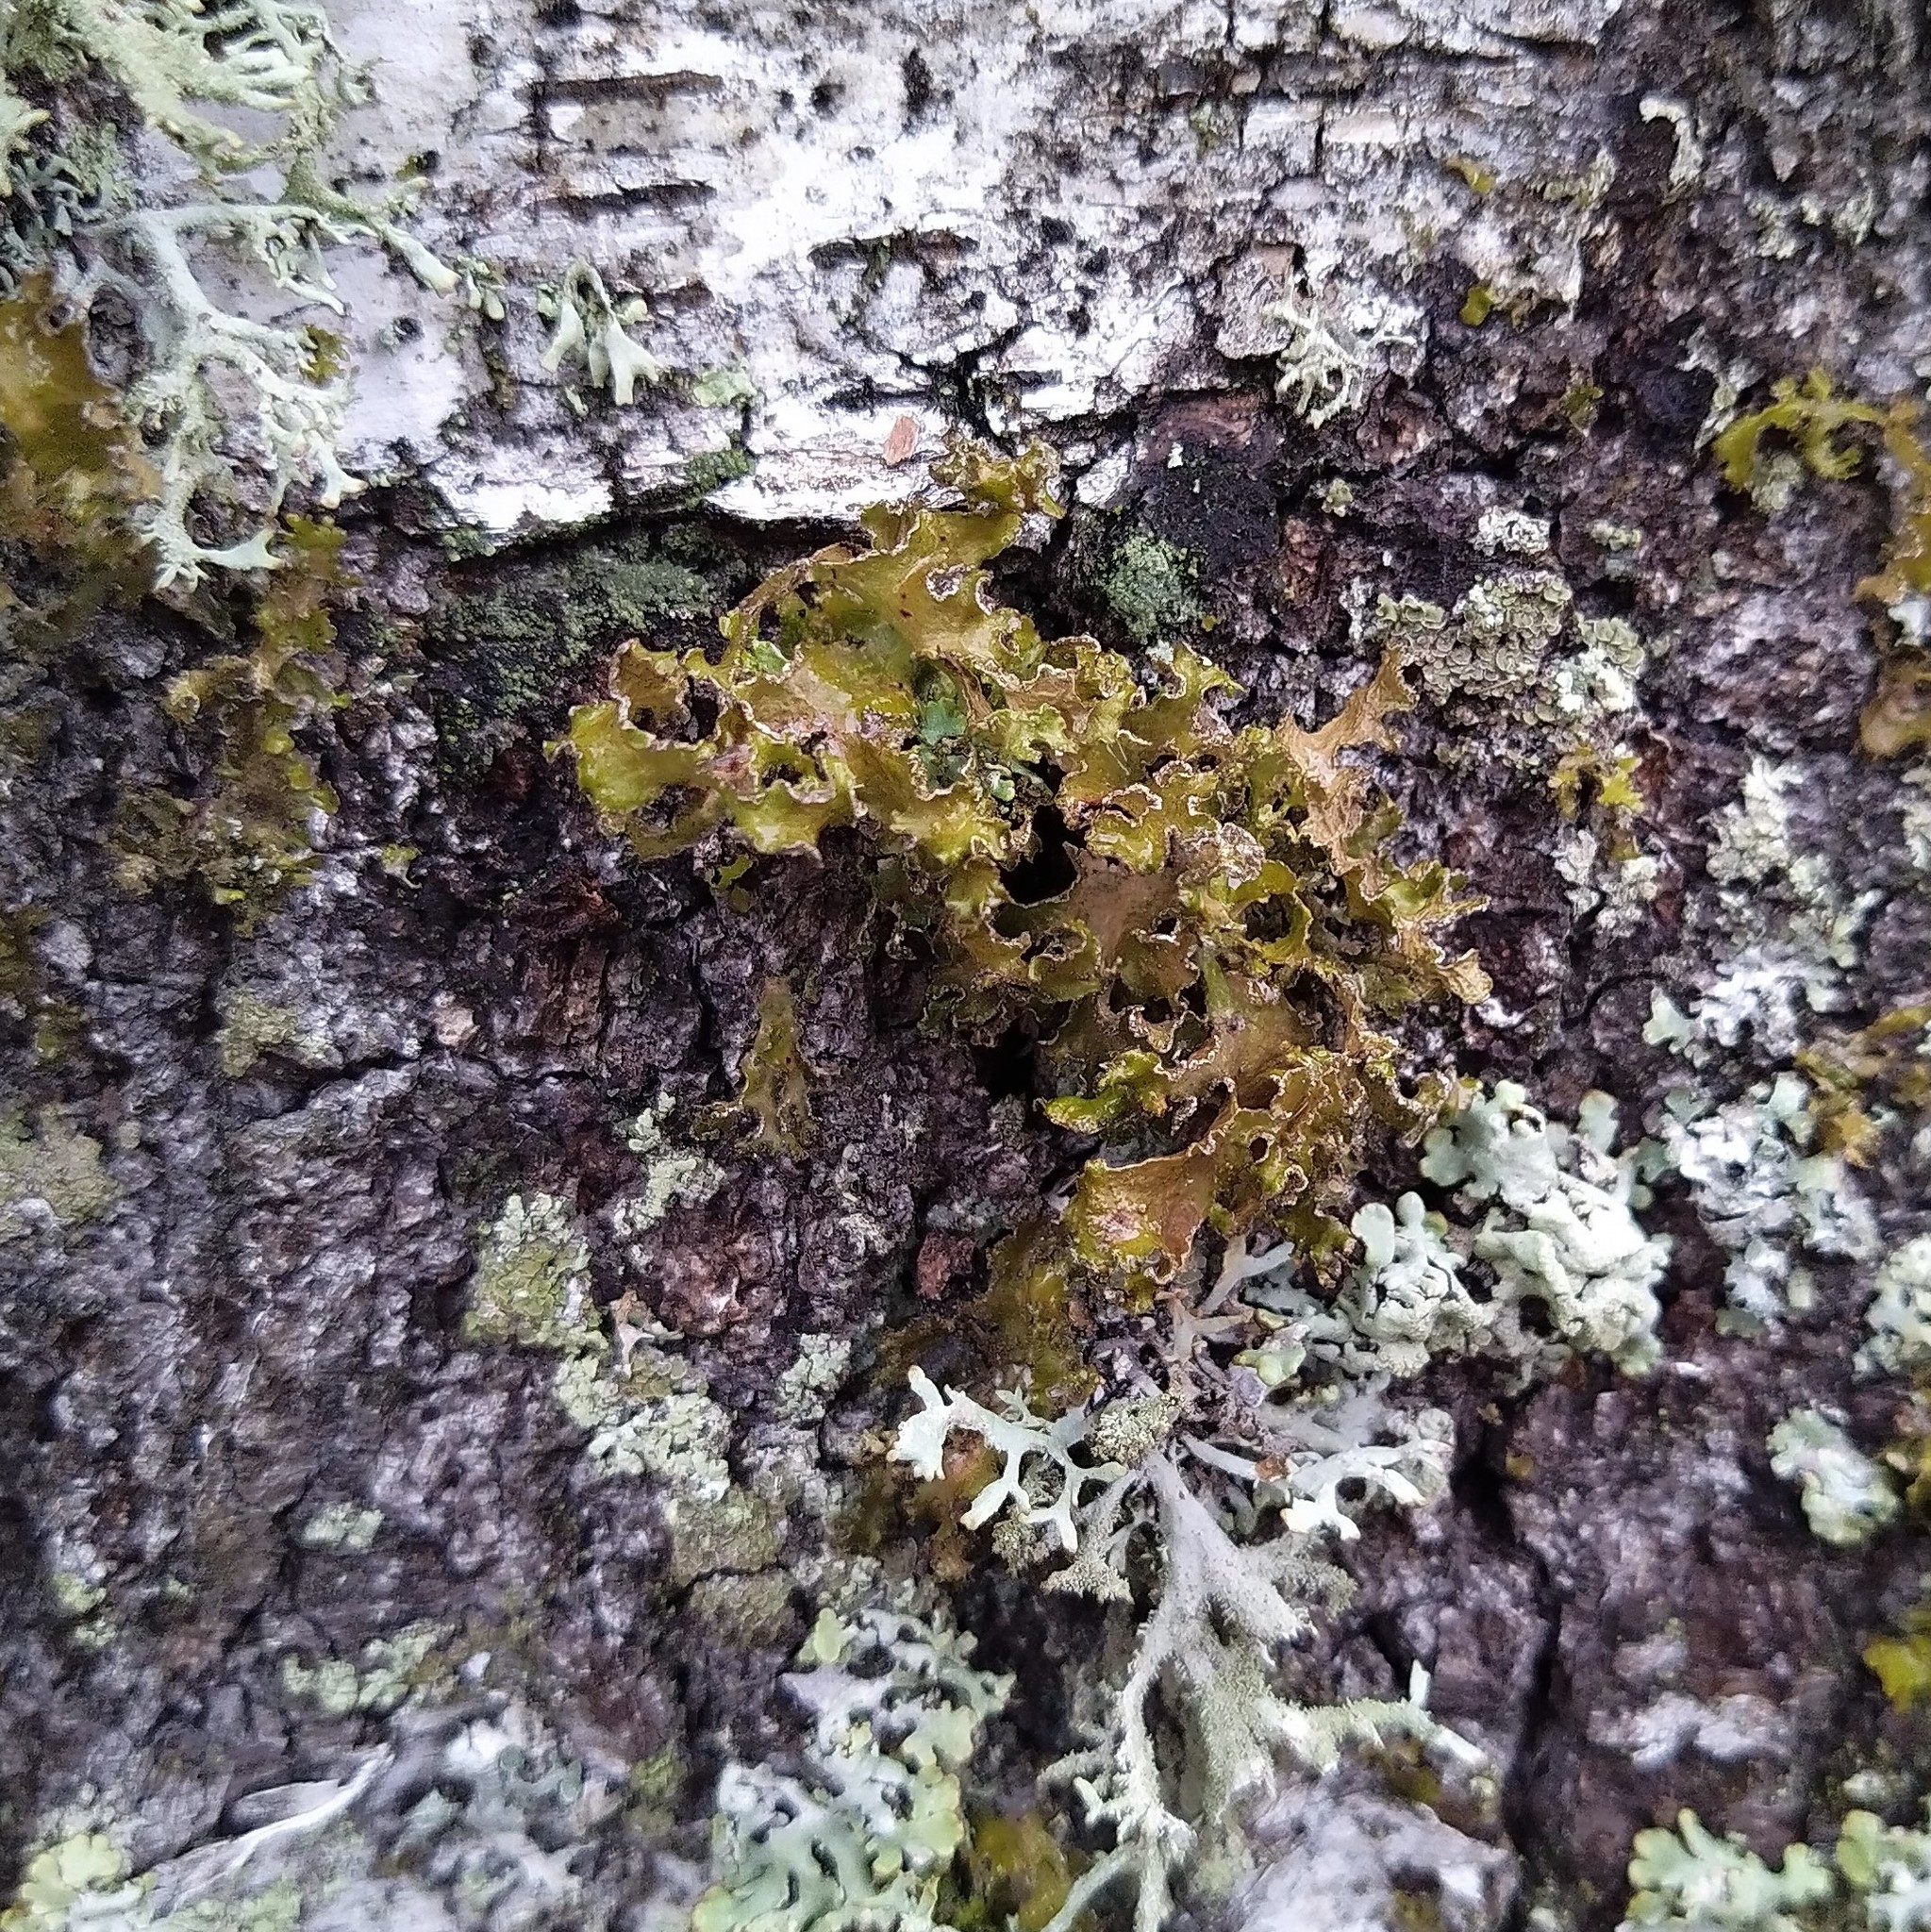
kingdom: Fungi
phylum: Ascomycota
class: Lecanoromycetes
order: Lecanorales
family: Parmeliaceae
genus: Nephromopsis
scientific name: Nephromopsis chlorophylla
